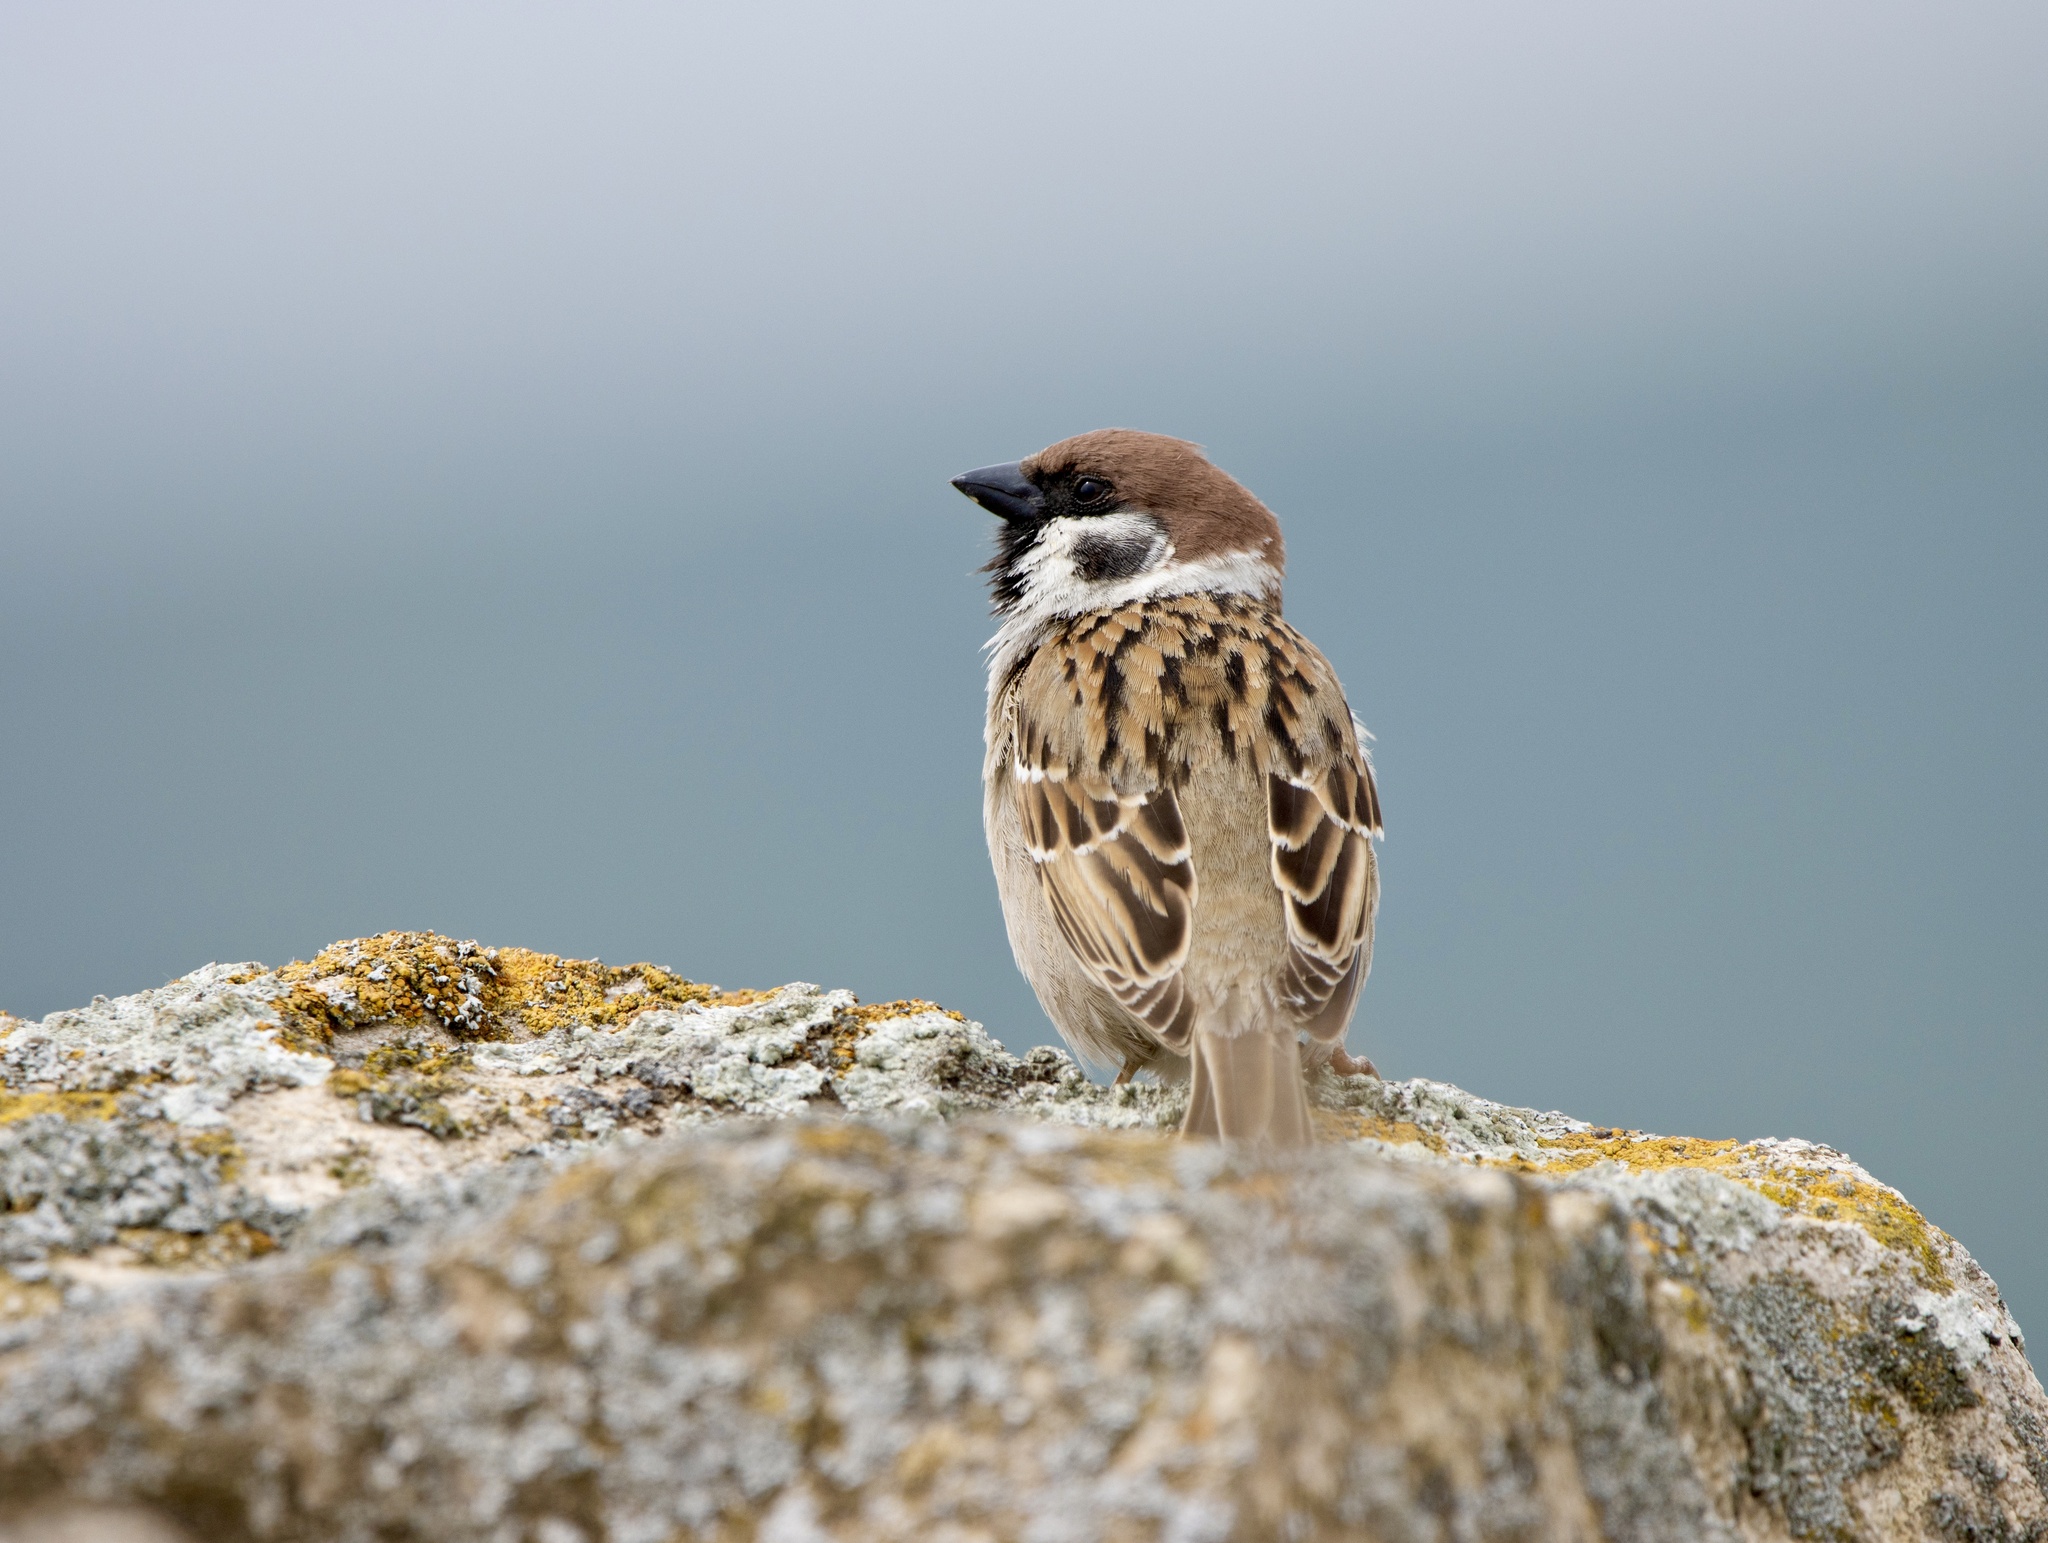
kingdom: Animalia
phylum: Chordata
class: Aves
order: Passeriformes
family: Passeridae
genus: Passer
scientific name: Passer montanus
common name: Eurasian tree sparrow
